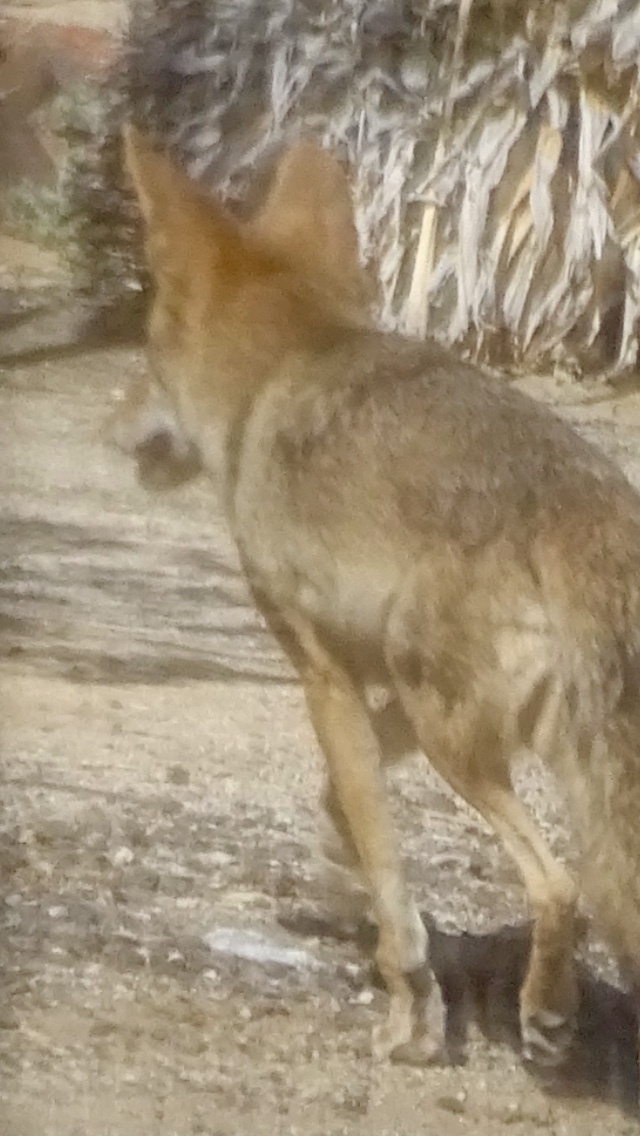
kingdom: Animalia
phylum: Chordata
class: Mammalia
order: Carnivora
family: Canidae
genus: Canis
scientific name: Canis latrans
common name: Coyote
